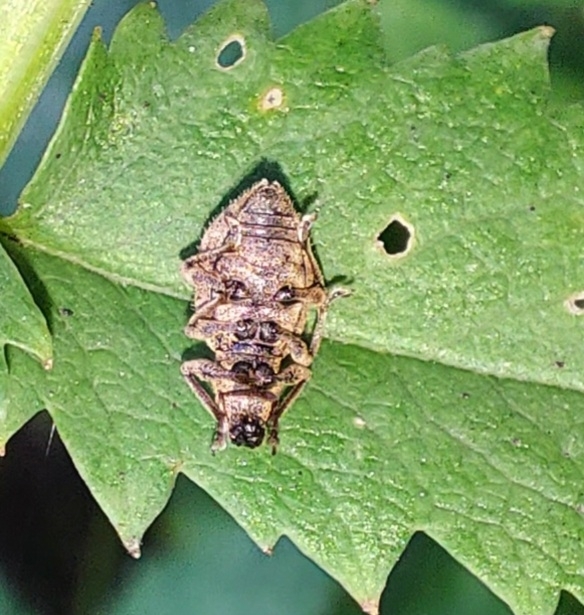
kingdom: Animalia
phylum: Arthropoda
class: Insecta
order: Coleoptera
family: Curculionidae
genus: Sciaphilus
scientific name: Sciaphilus asperatus
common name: Weevil
